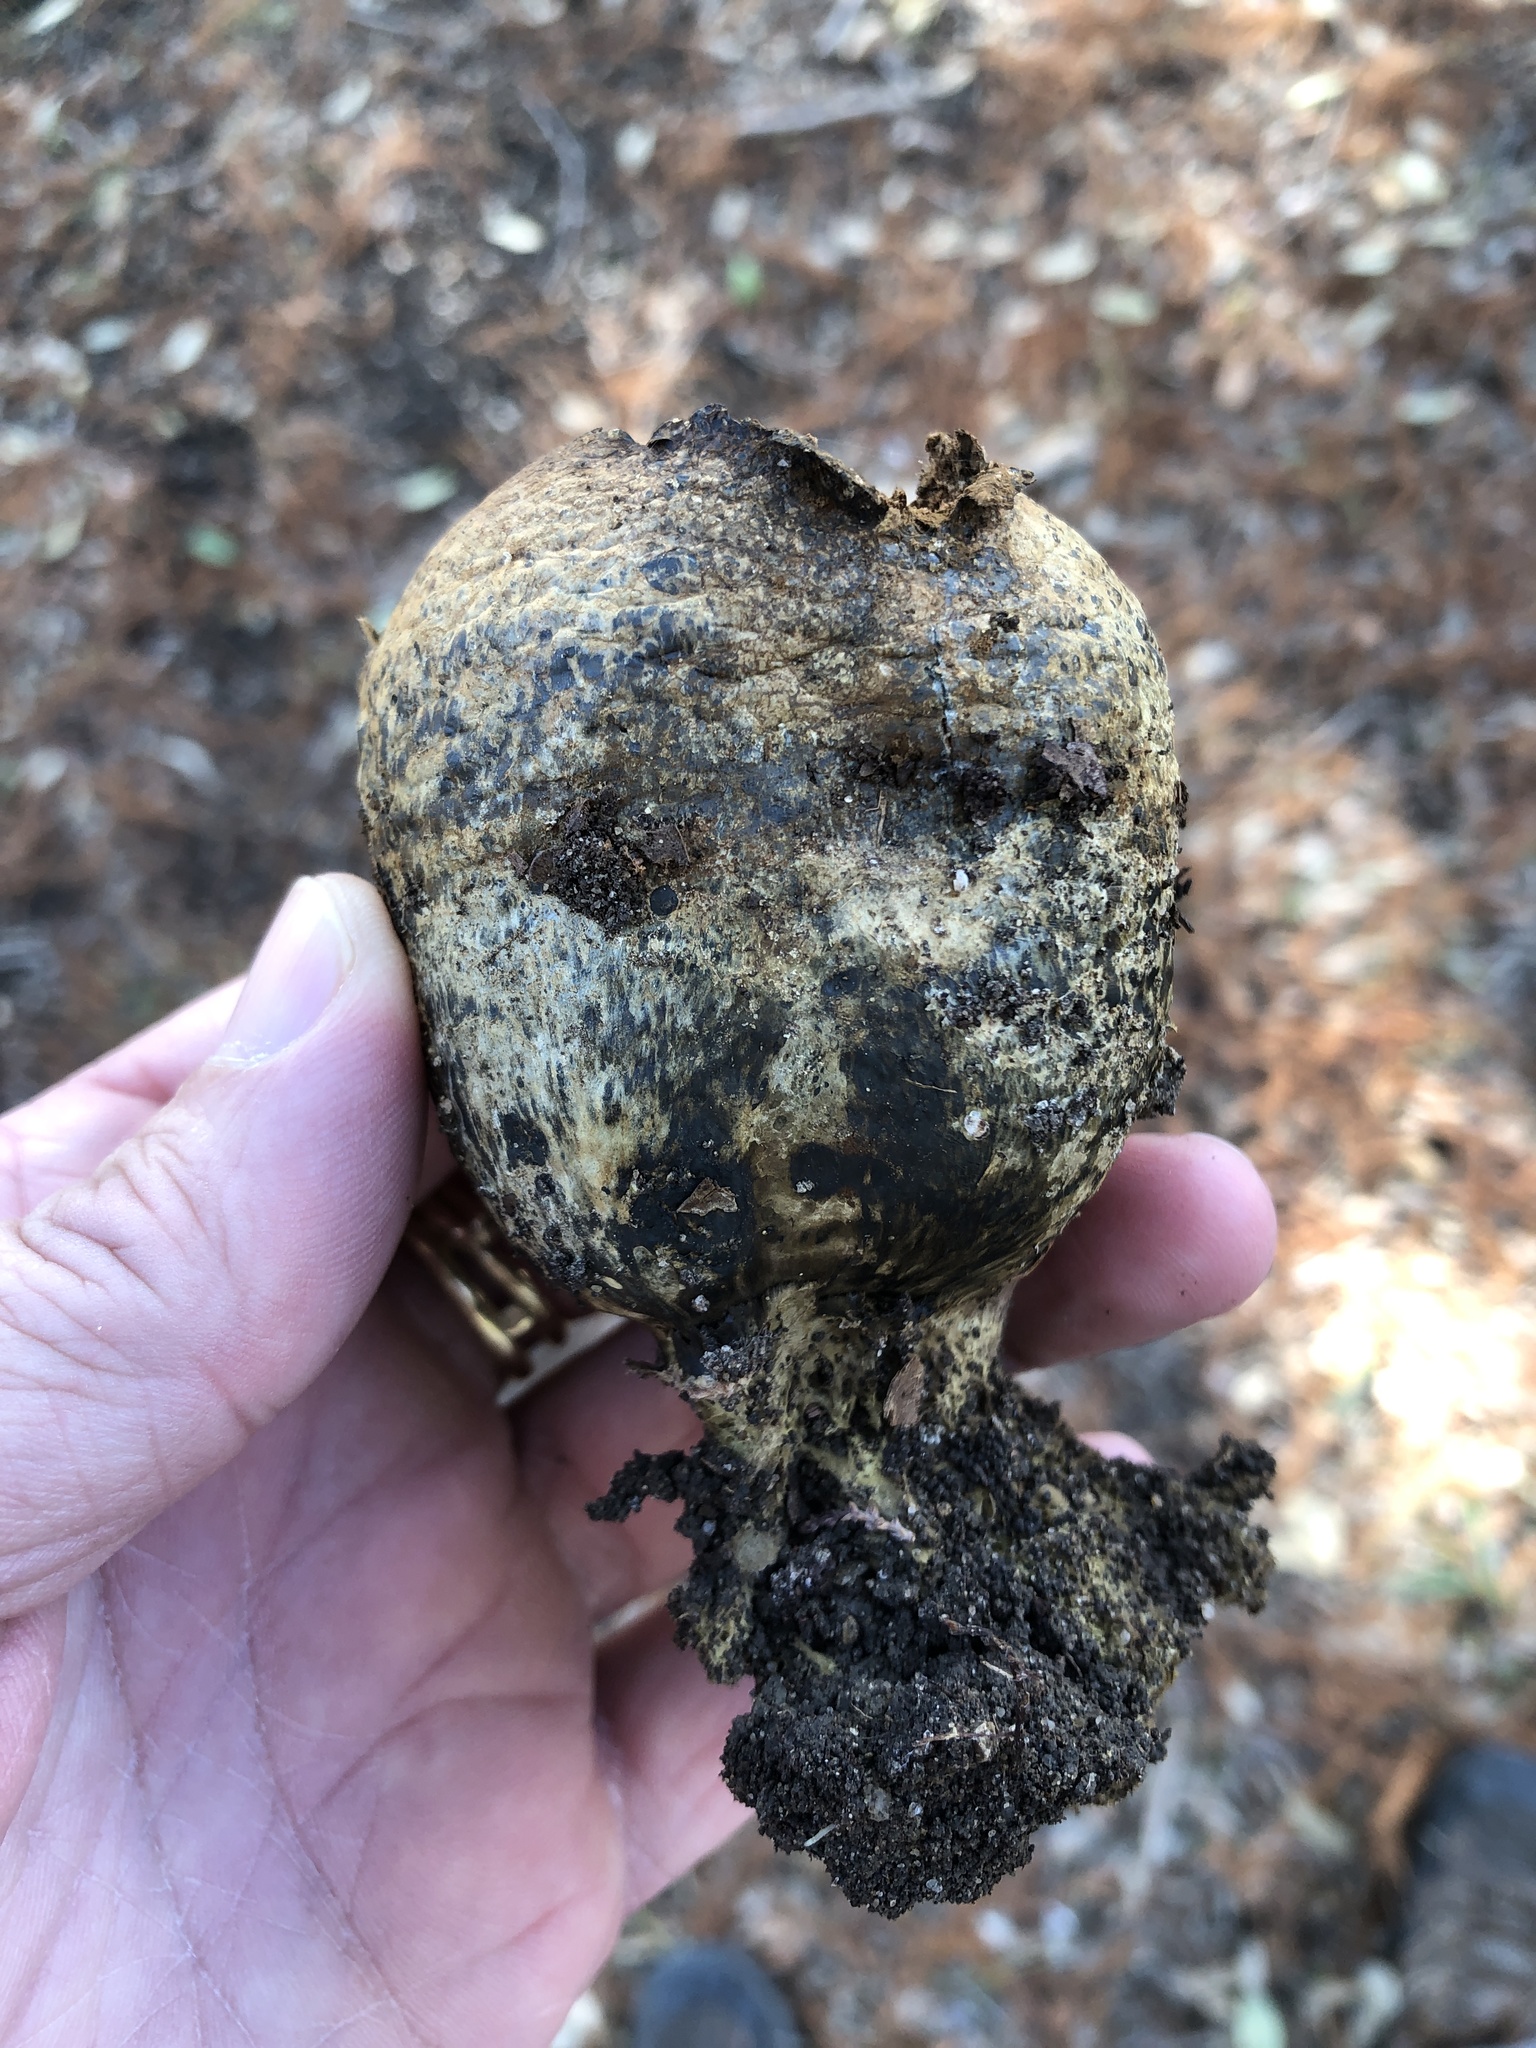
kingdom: Fungi
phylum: Basidiomycota
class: Agaricomycetes
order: Boletales
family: Sclerodermataceae
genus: Pisolithus
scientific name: Pisolithus arenarius
